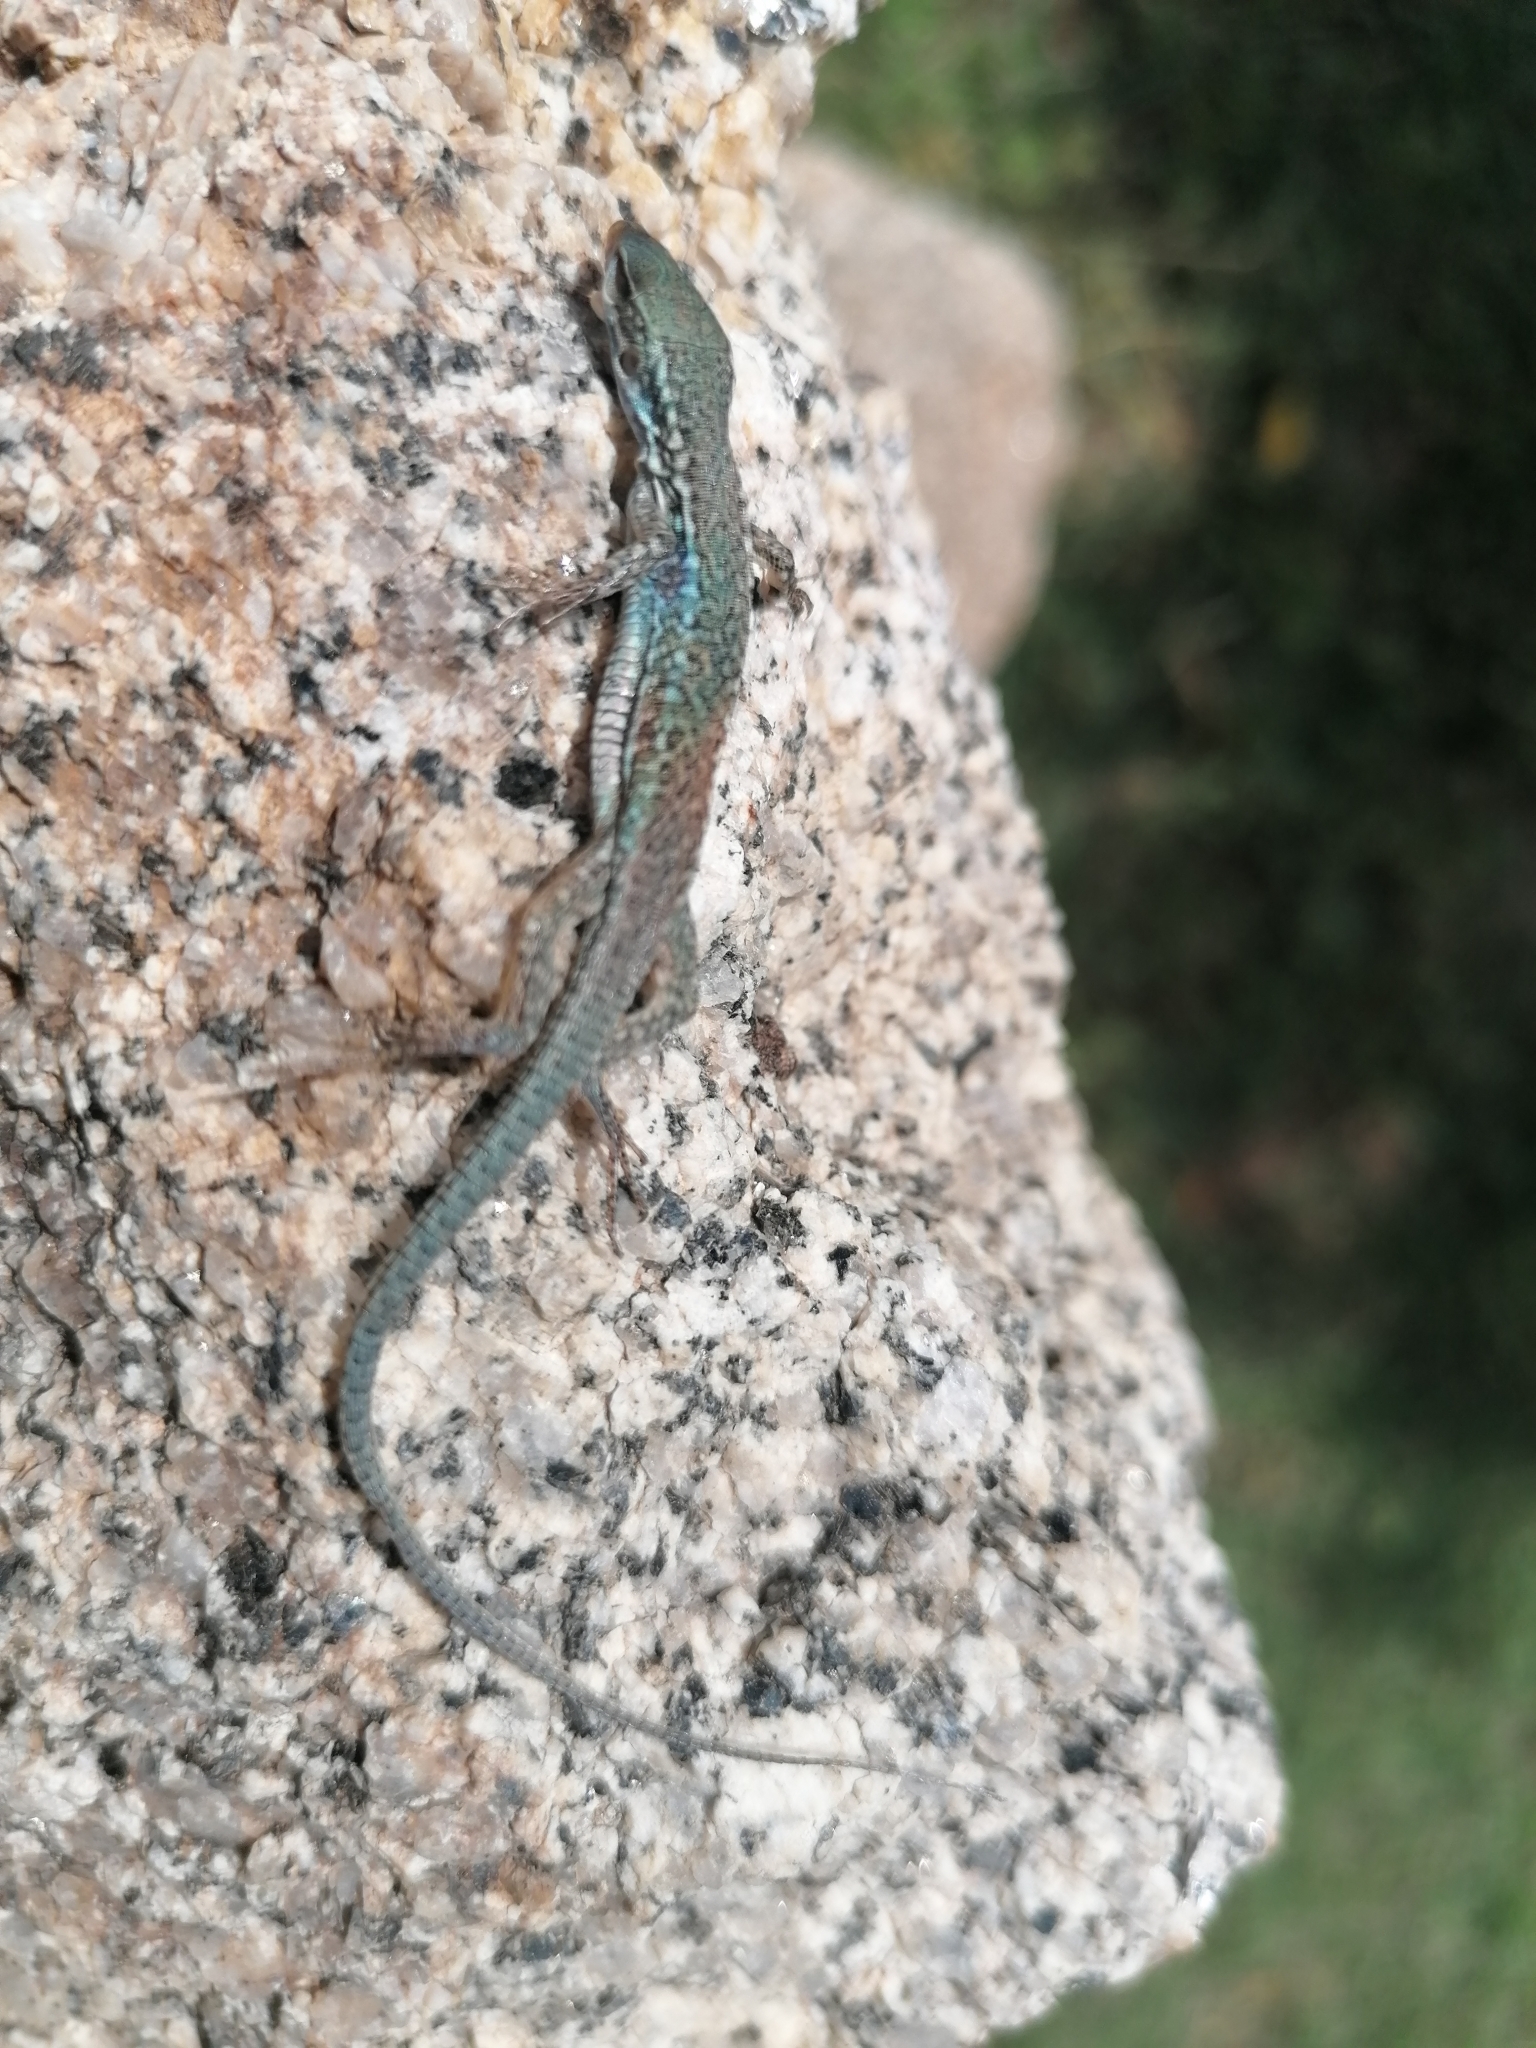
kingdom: Animalia
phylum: Chordata
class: Squamata
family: Lacertidae
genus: Podarcis
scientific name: Podarcis siculus
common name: Italian wall lizard
